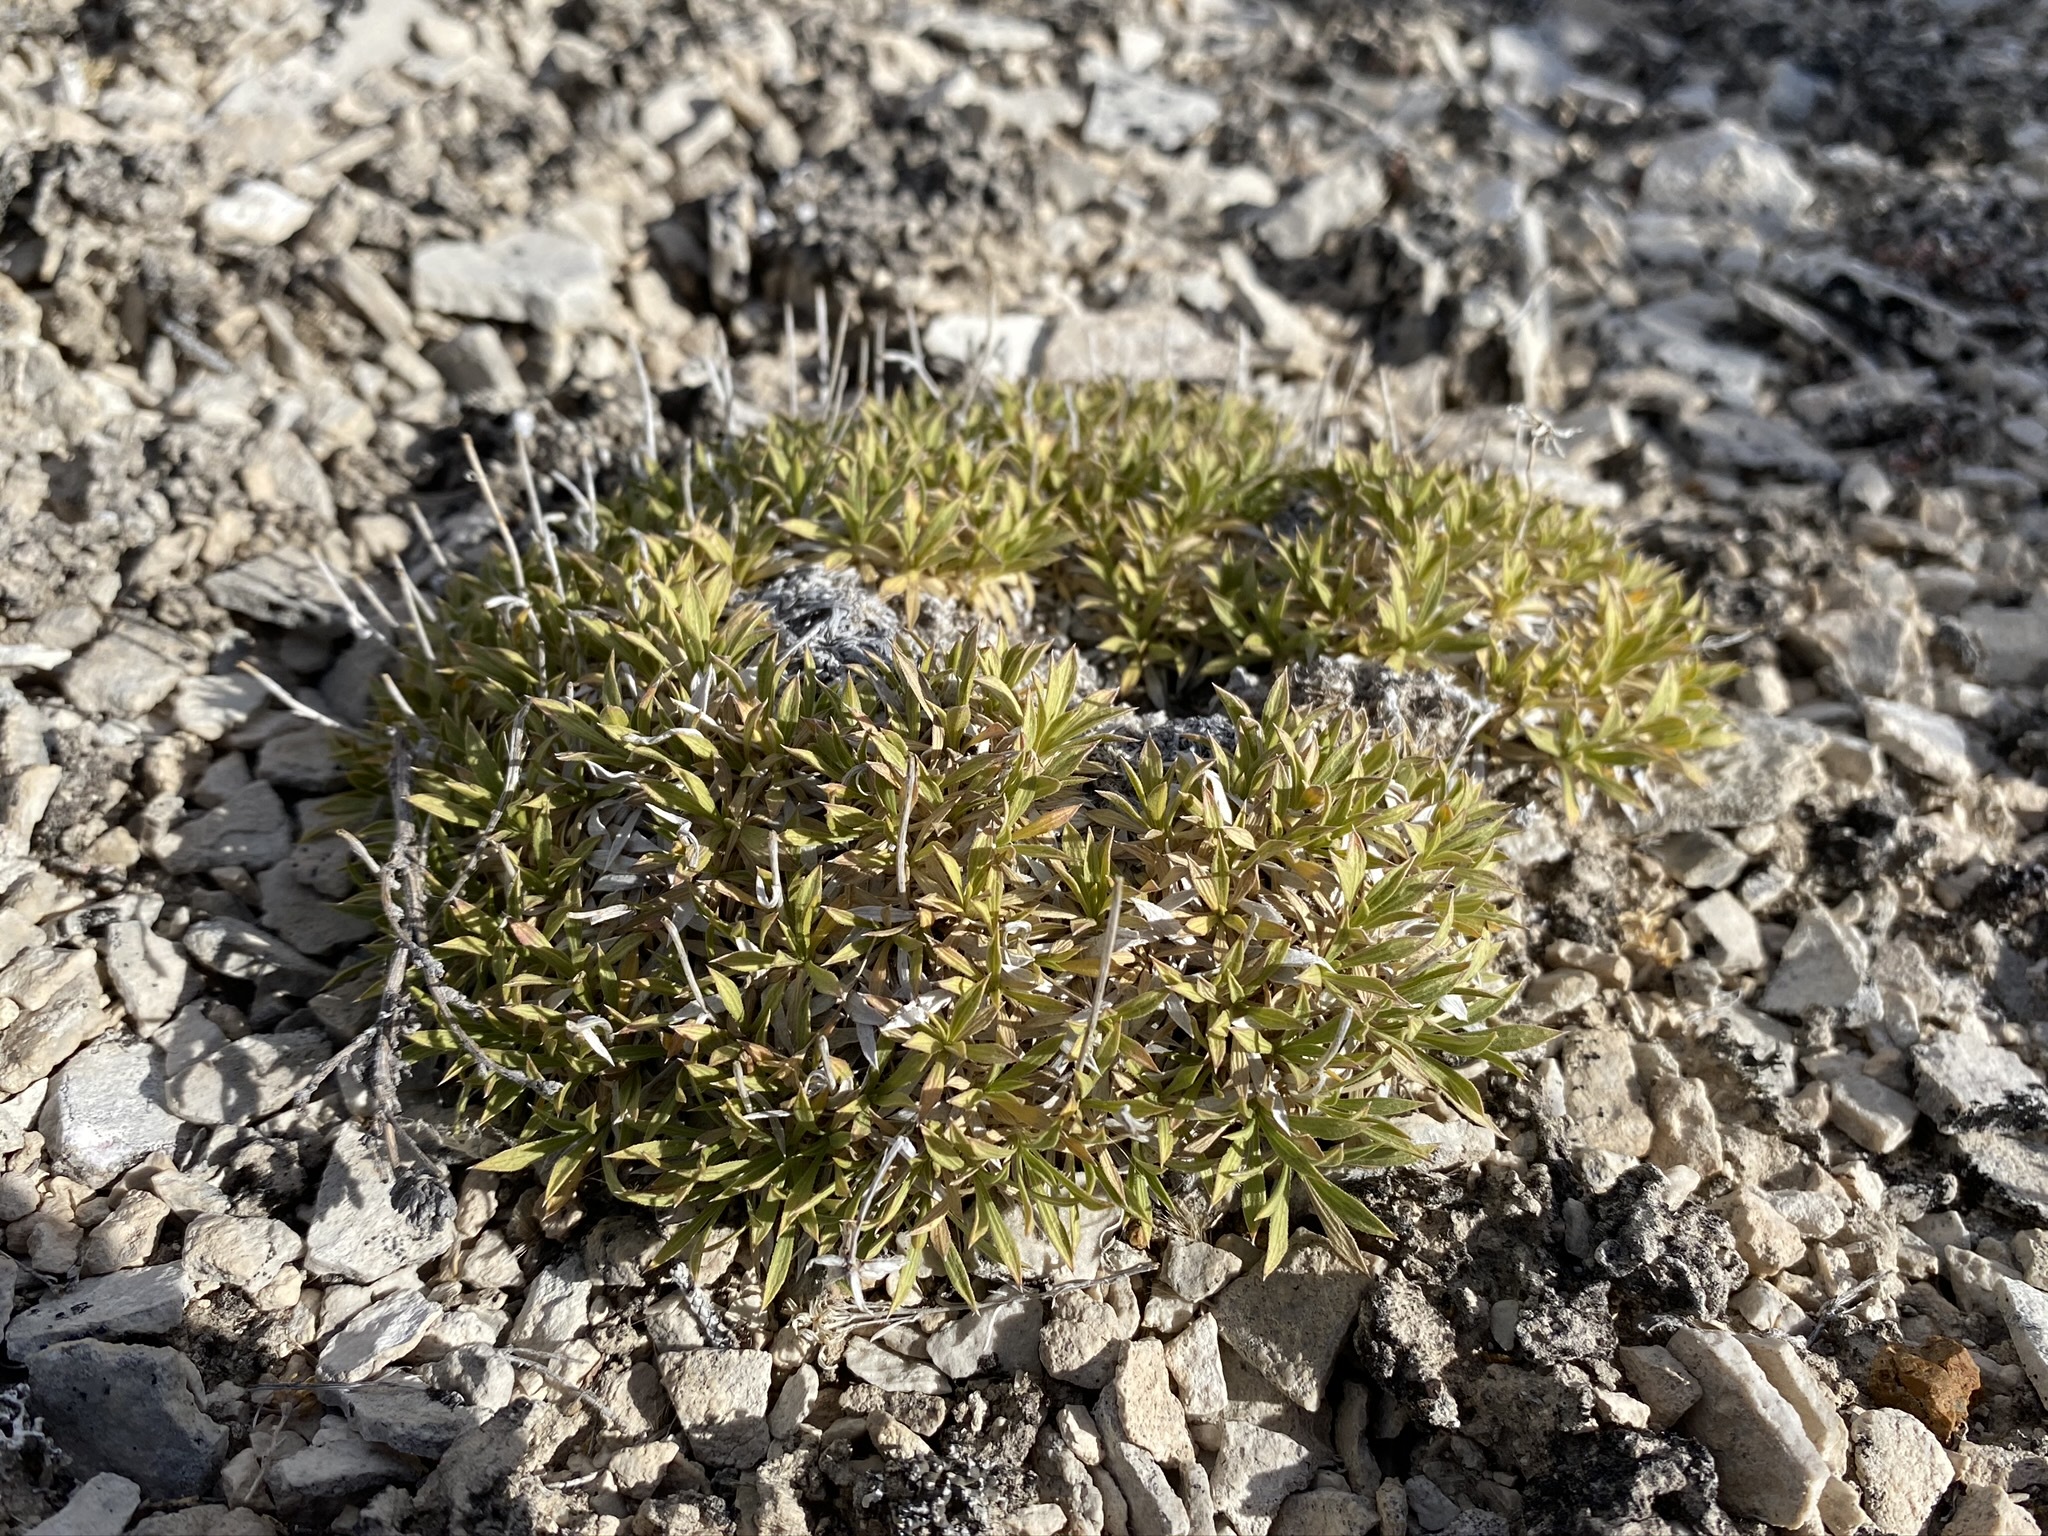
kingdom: Plantae
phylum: Tracheophyta
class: Magnoliopsida
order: Asterales
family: Asteraceae
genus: Stenotus
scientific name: Stenotus acaulis
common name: Stemless goldenweed
